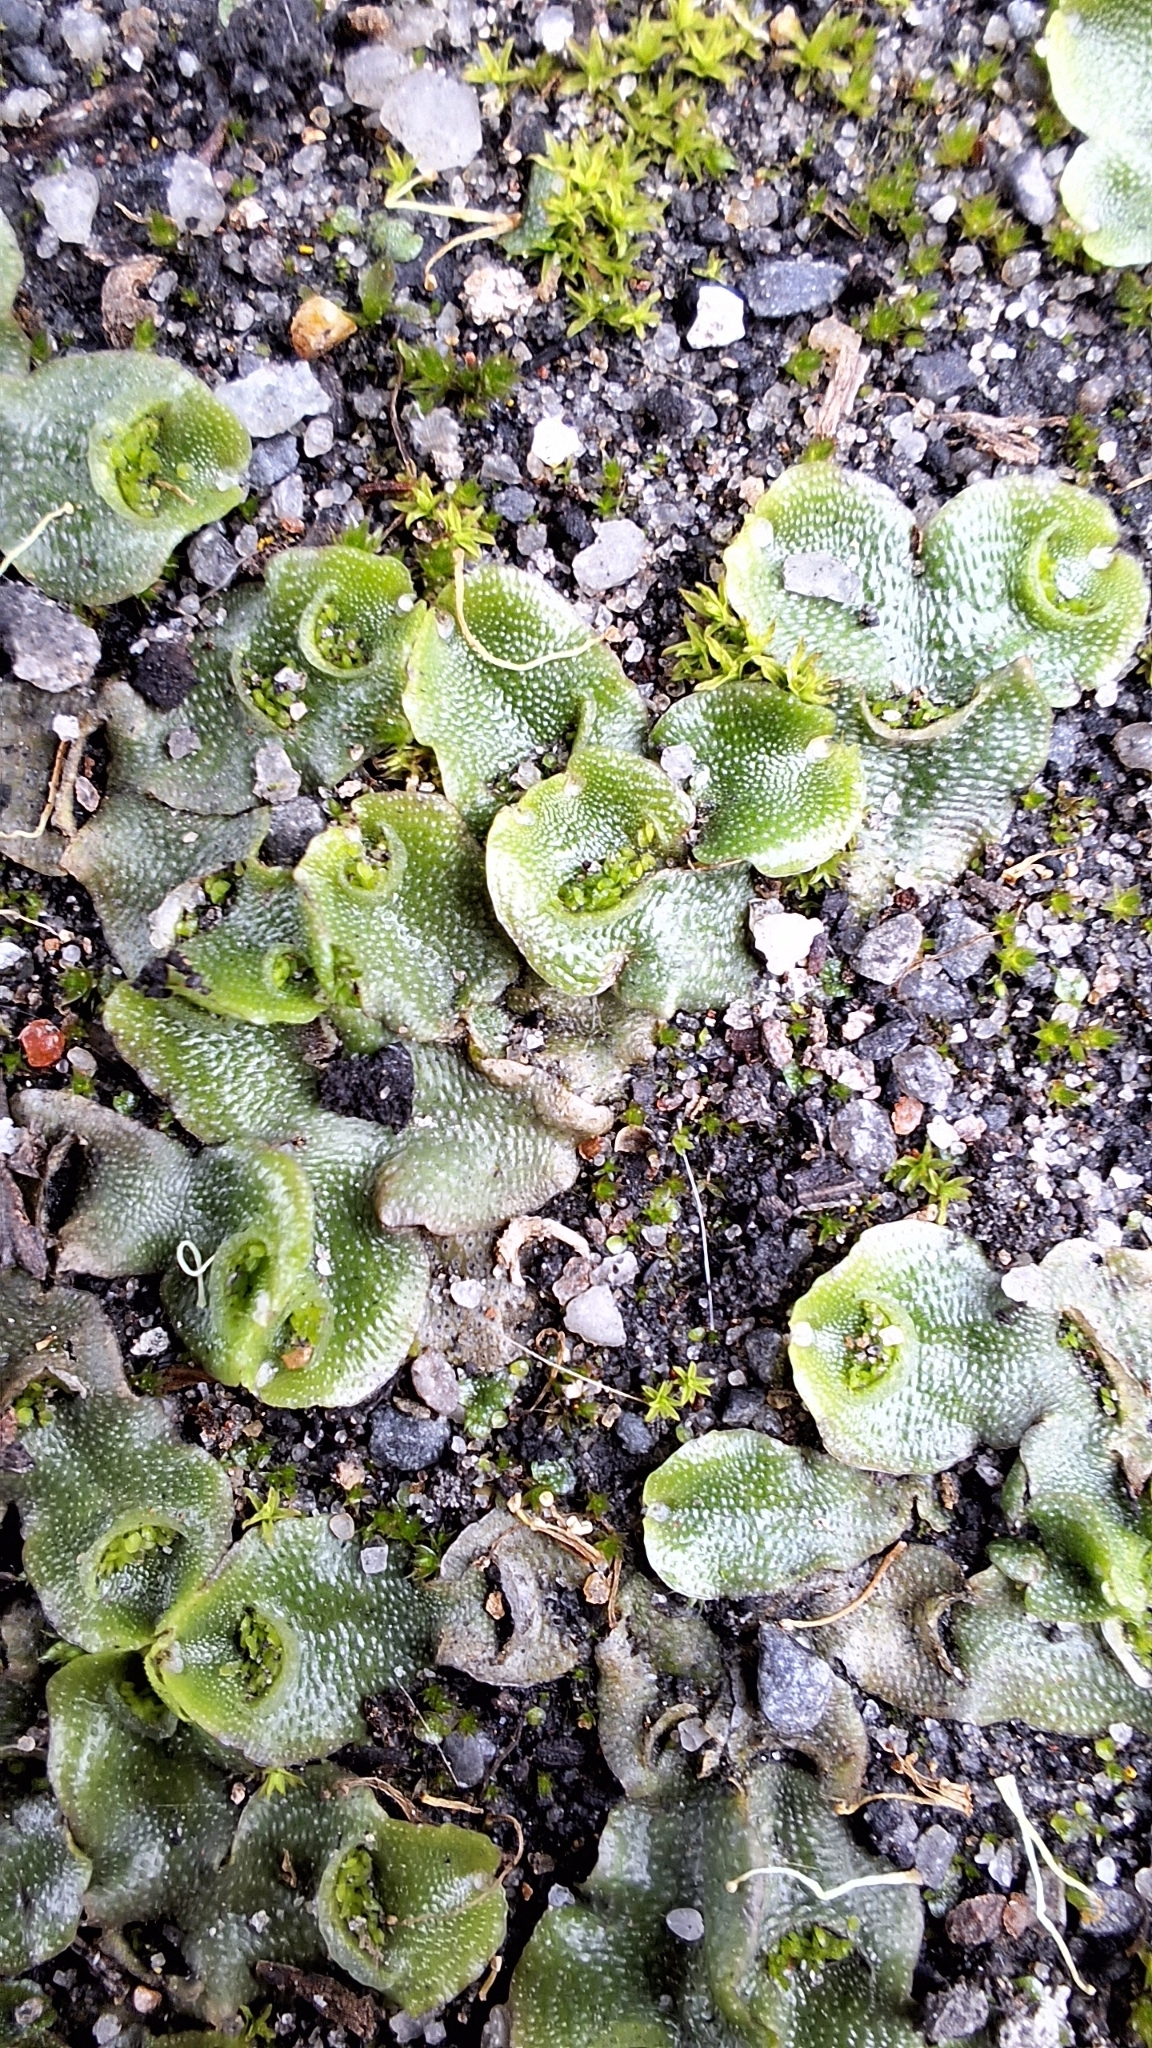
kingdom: Plantae
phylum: Marchantiophyta
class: Marchantiopsida
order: Lunulariales
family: Lunulariaceae
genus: Lunularia
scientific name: Lunularia cruciata
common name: Crescent-cup liverwort
